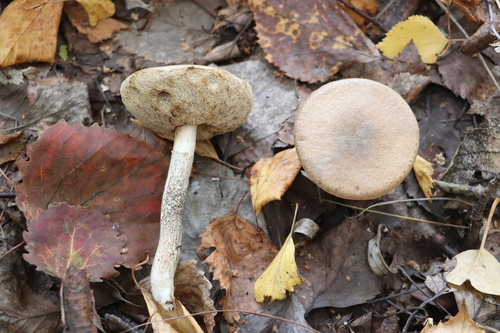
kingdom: Fungi
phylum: Basidiomycota
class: Agaricomycetes
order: Boletales
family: Boletaceae
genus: Leccinum
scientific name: Leccinum
